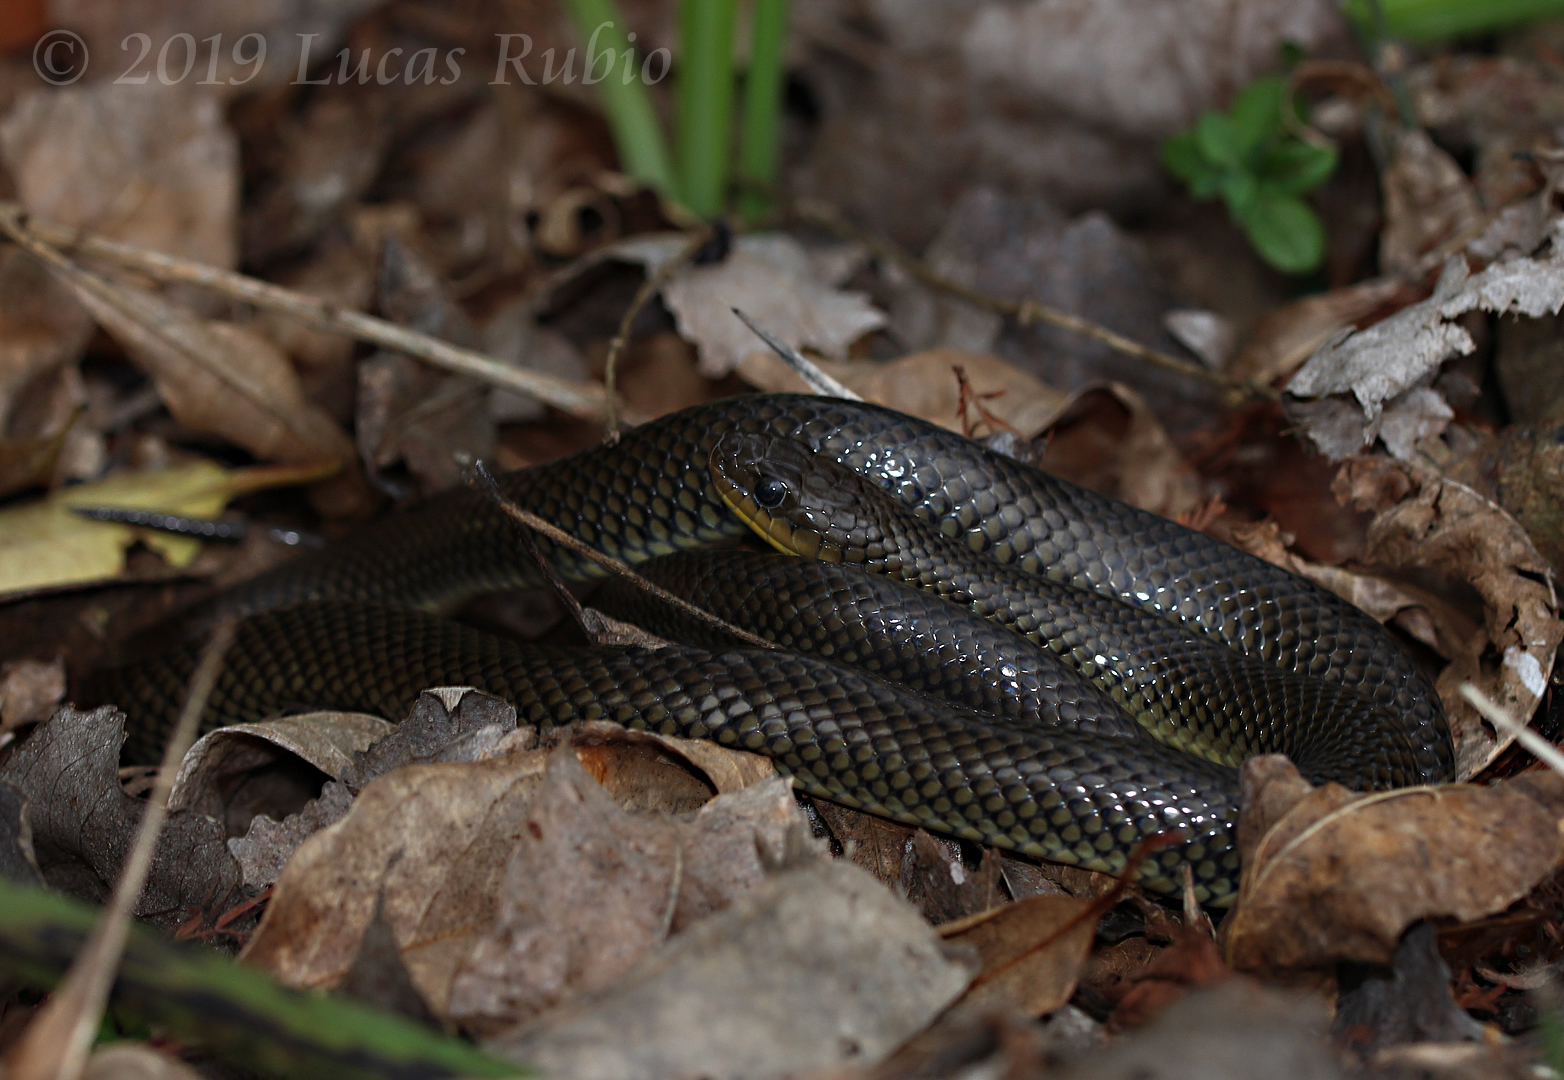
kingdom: Animalia
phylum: Chordata
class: Squamata
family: Colubridae
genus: Erythrolamprus
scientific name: Erythrolamprus semiaureus
